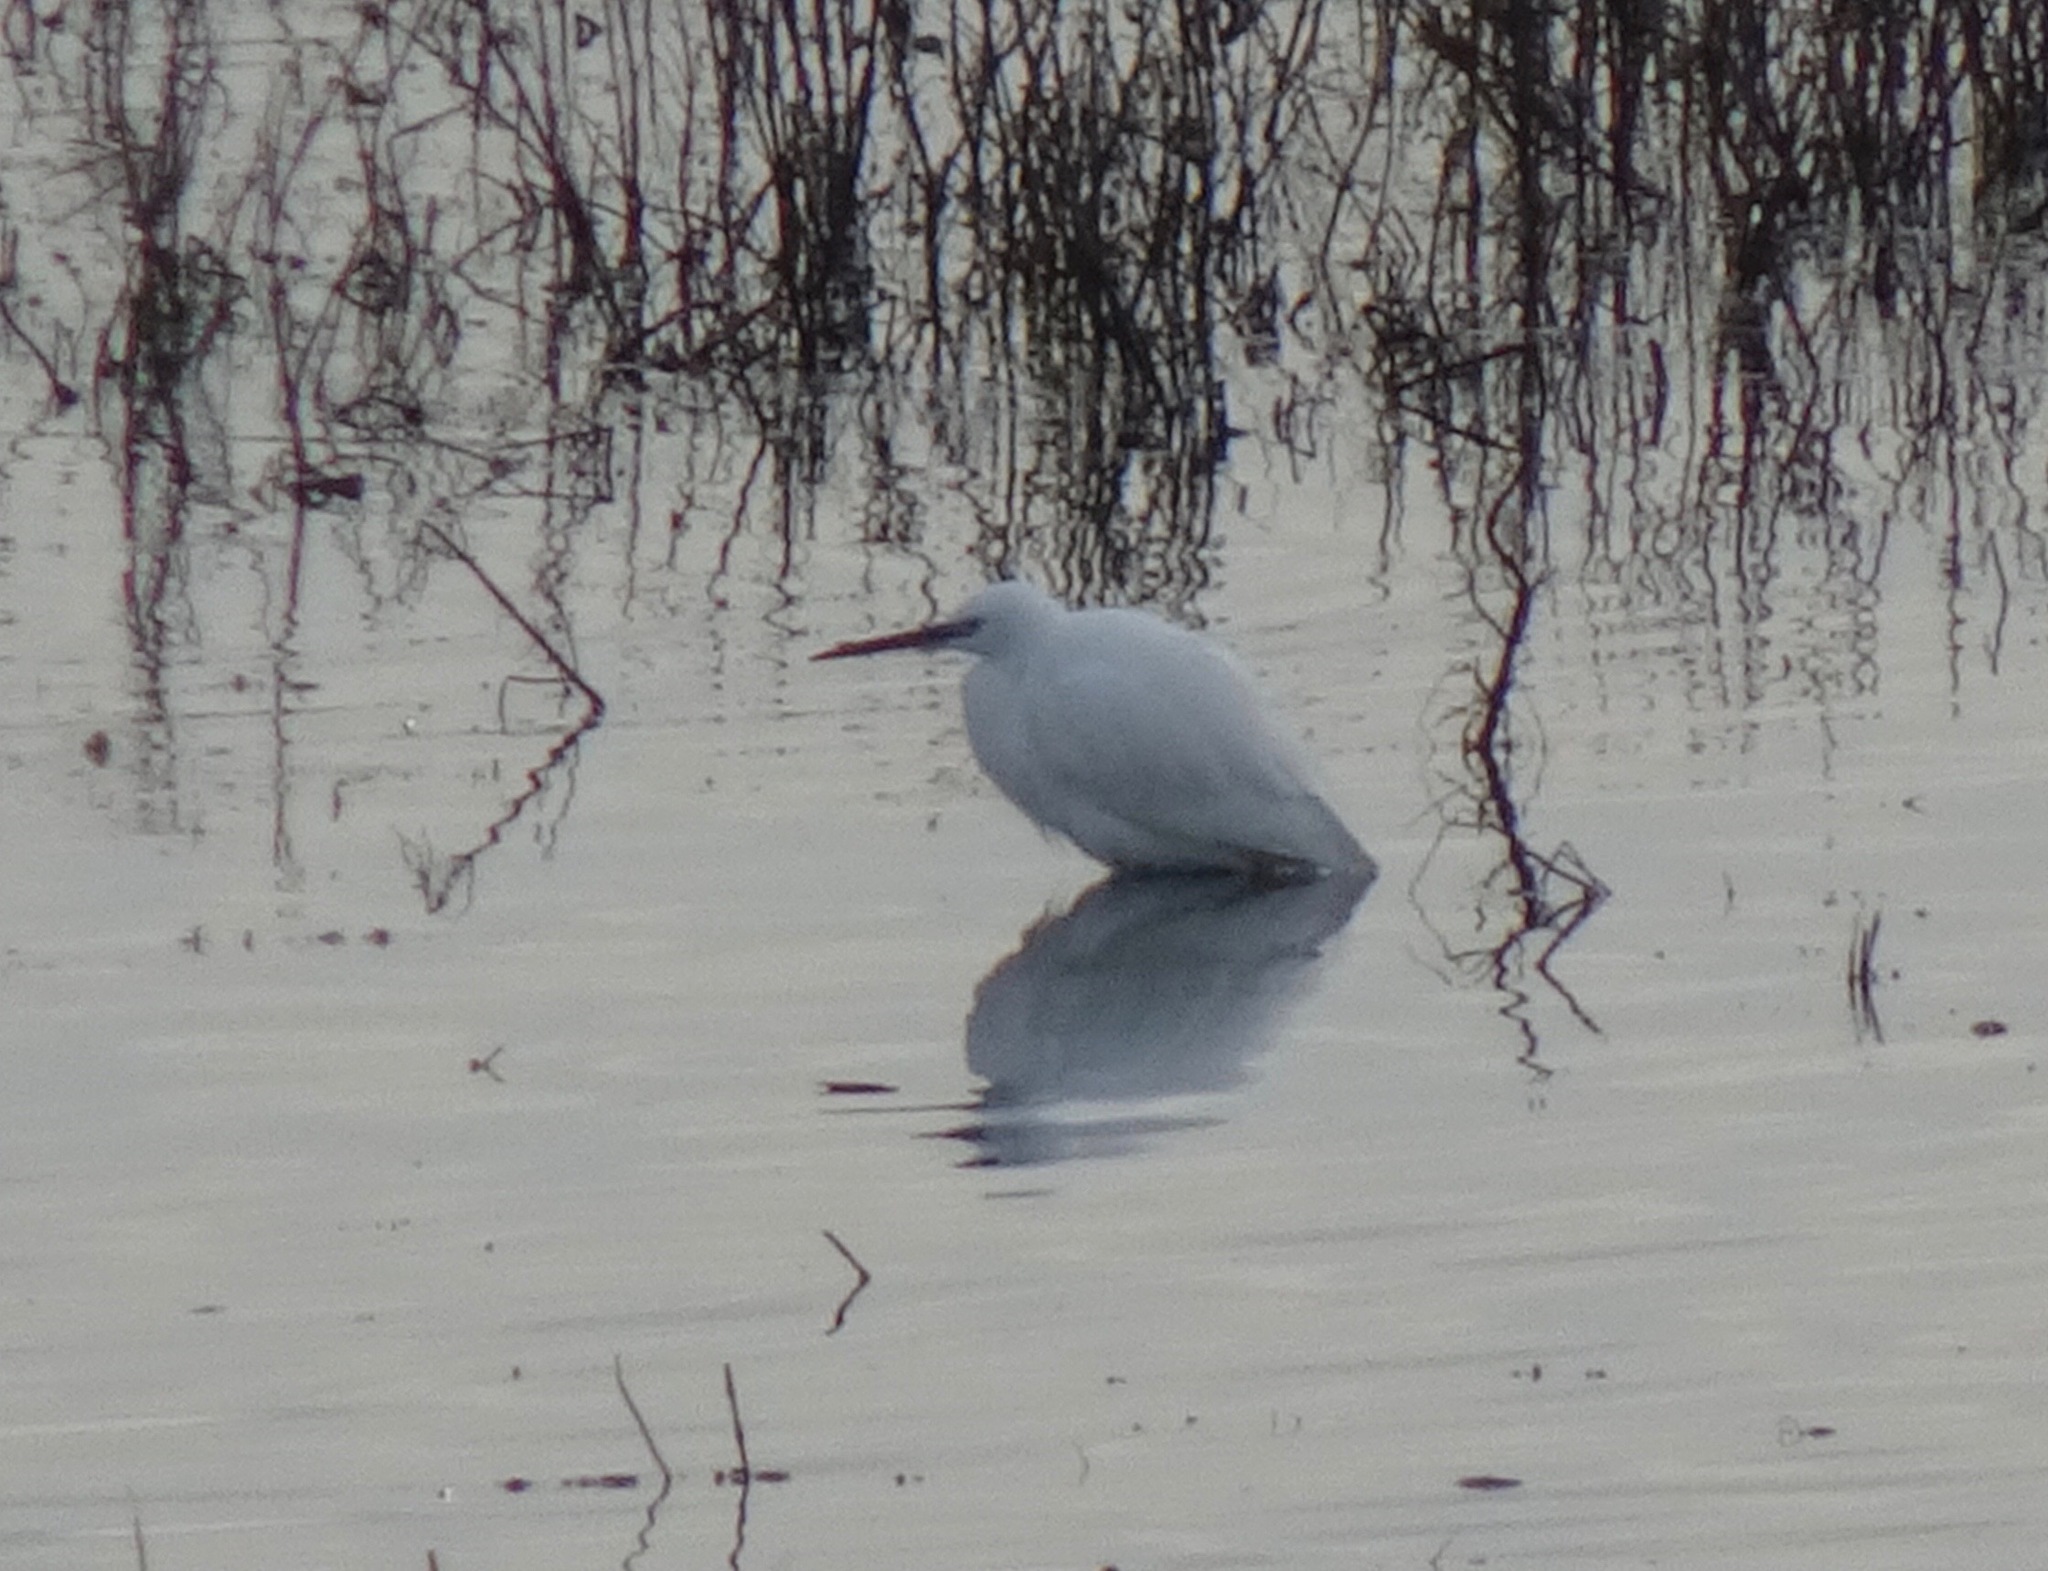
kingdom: Animalia
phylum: Chordata
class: Aves
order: Pelecaniformes
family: Ardeidae
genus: Egretta
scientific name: Egretta garzetta
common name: Little egret
